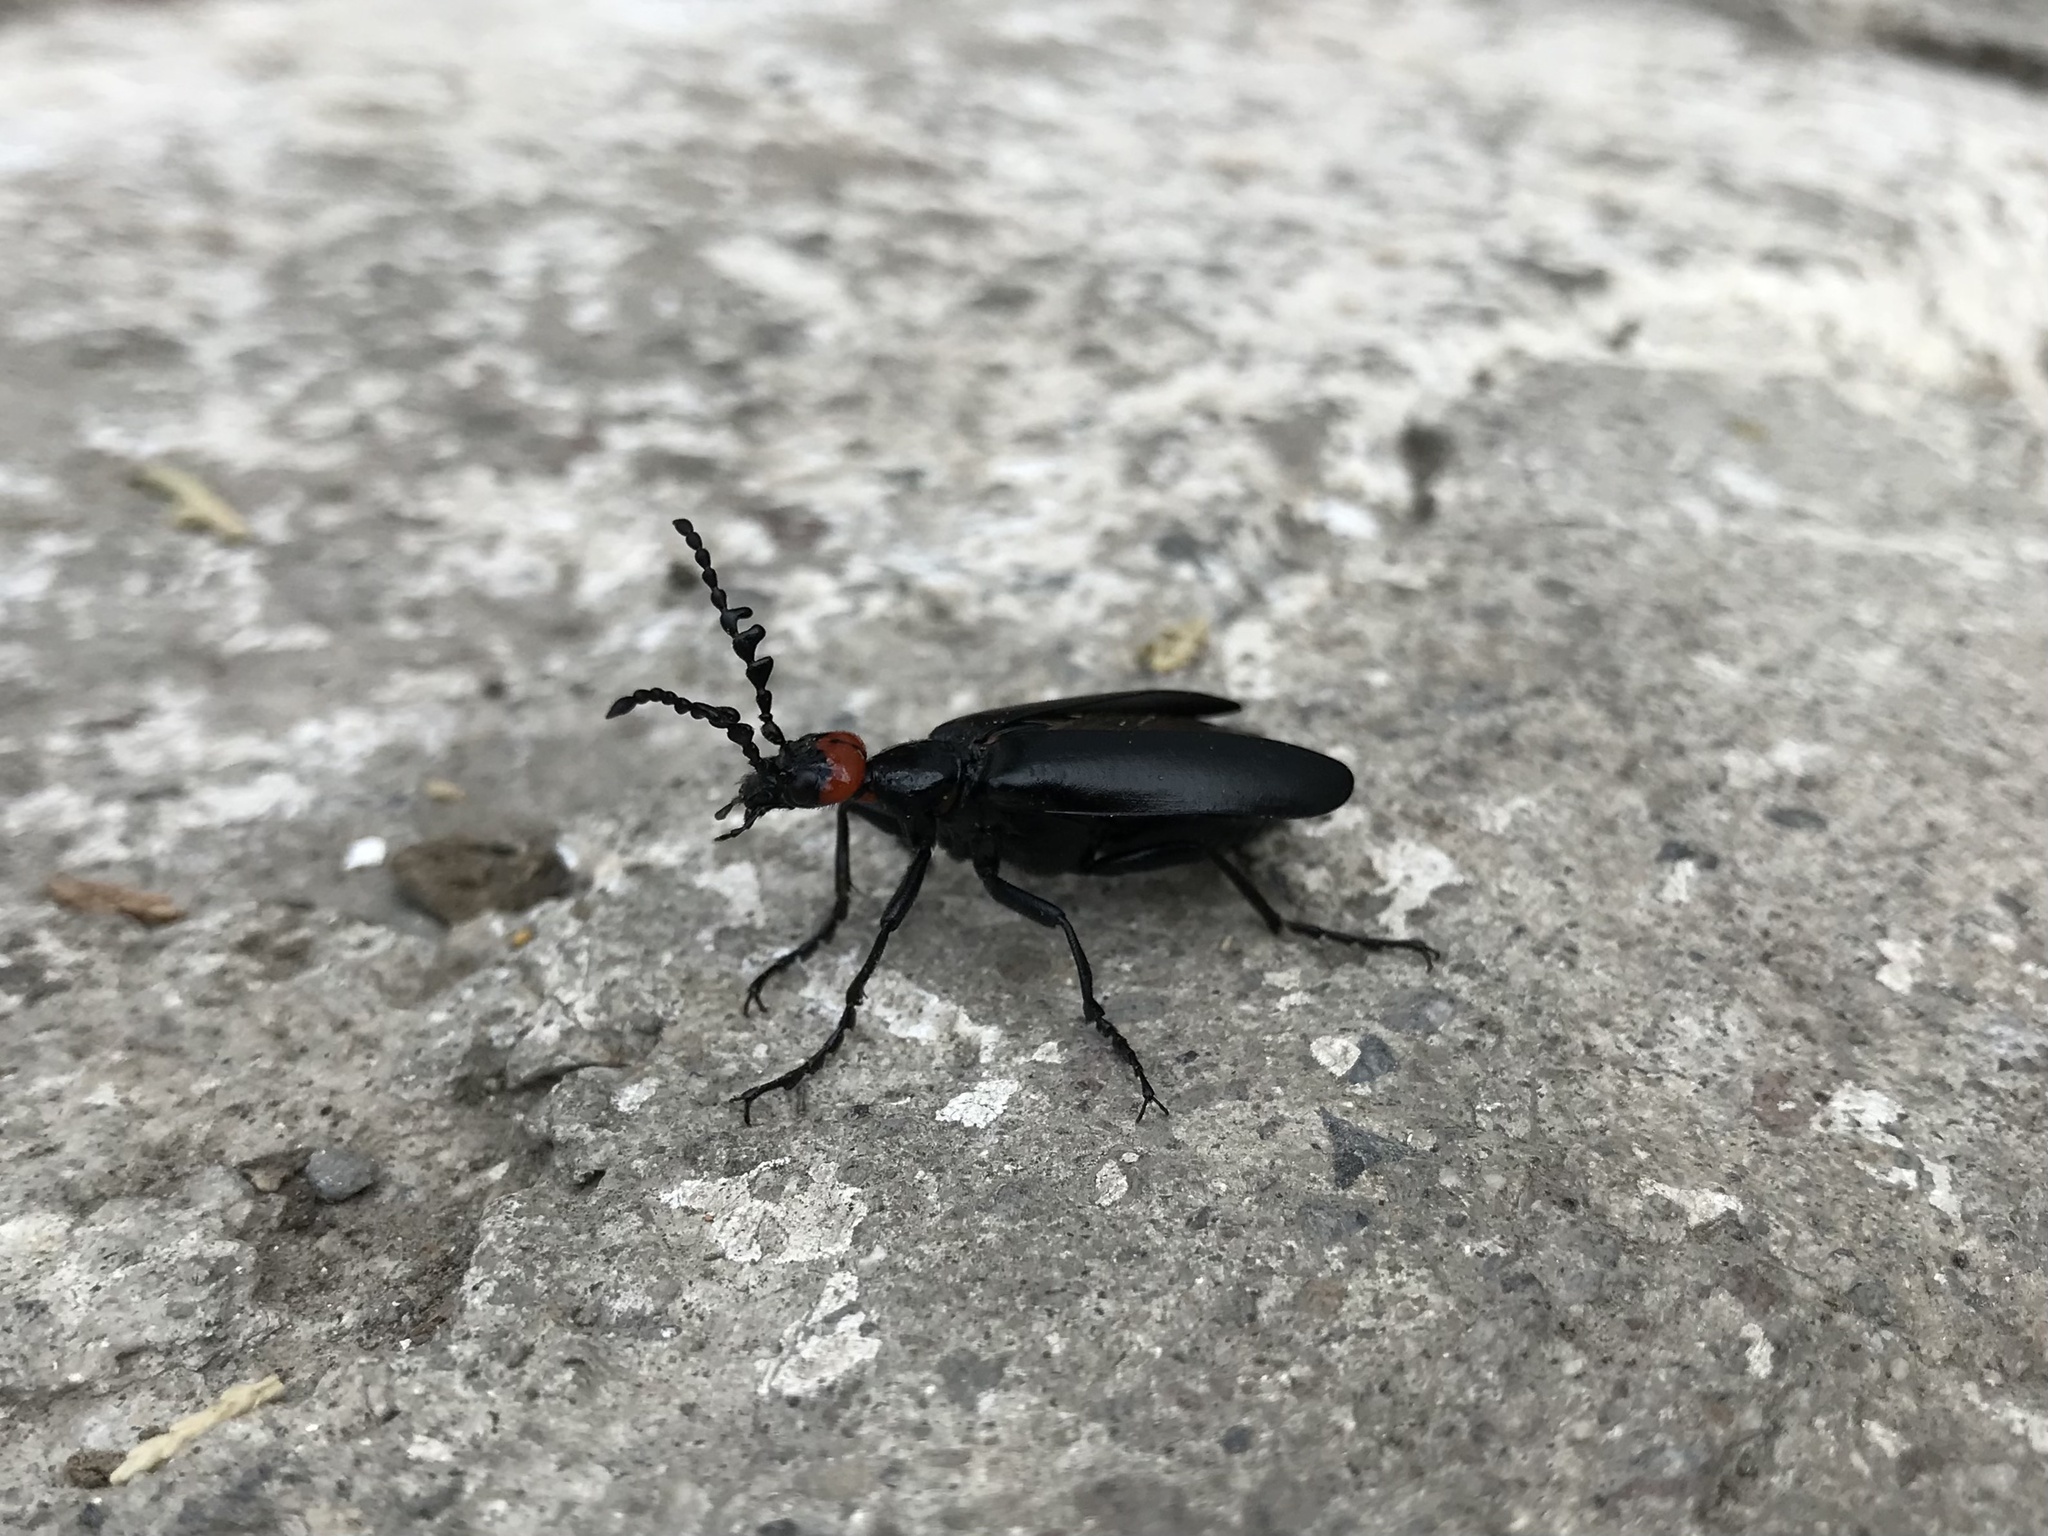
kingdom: Animalia
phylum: Arthropoda
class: Insecta
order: Coleoptera
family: Meloidae
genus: Lytta
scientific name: Lytta eucera
